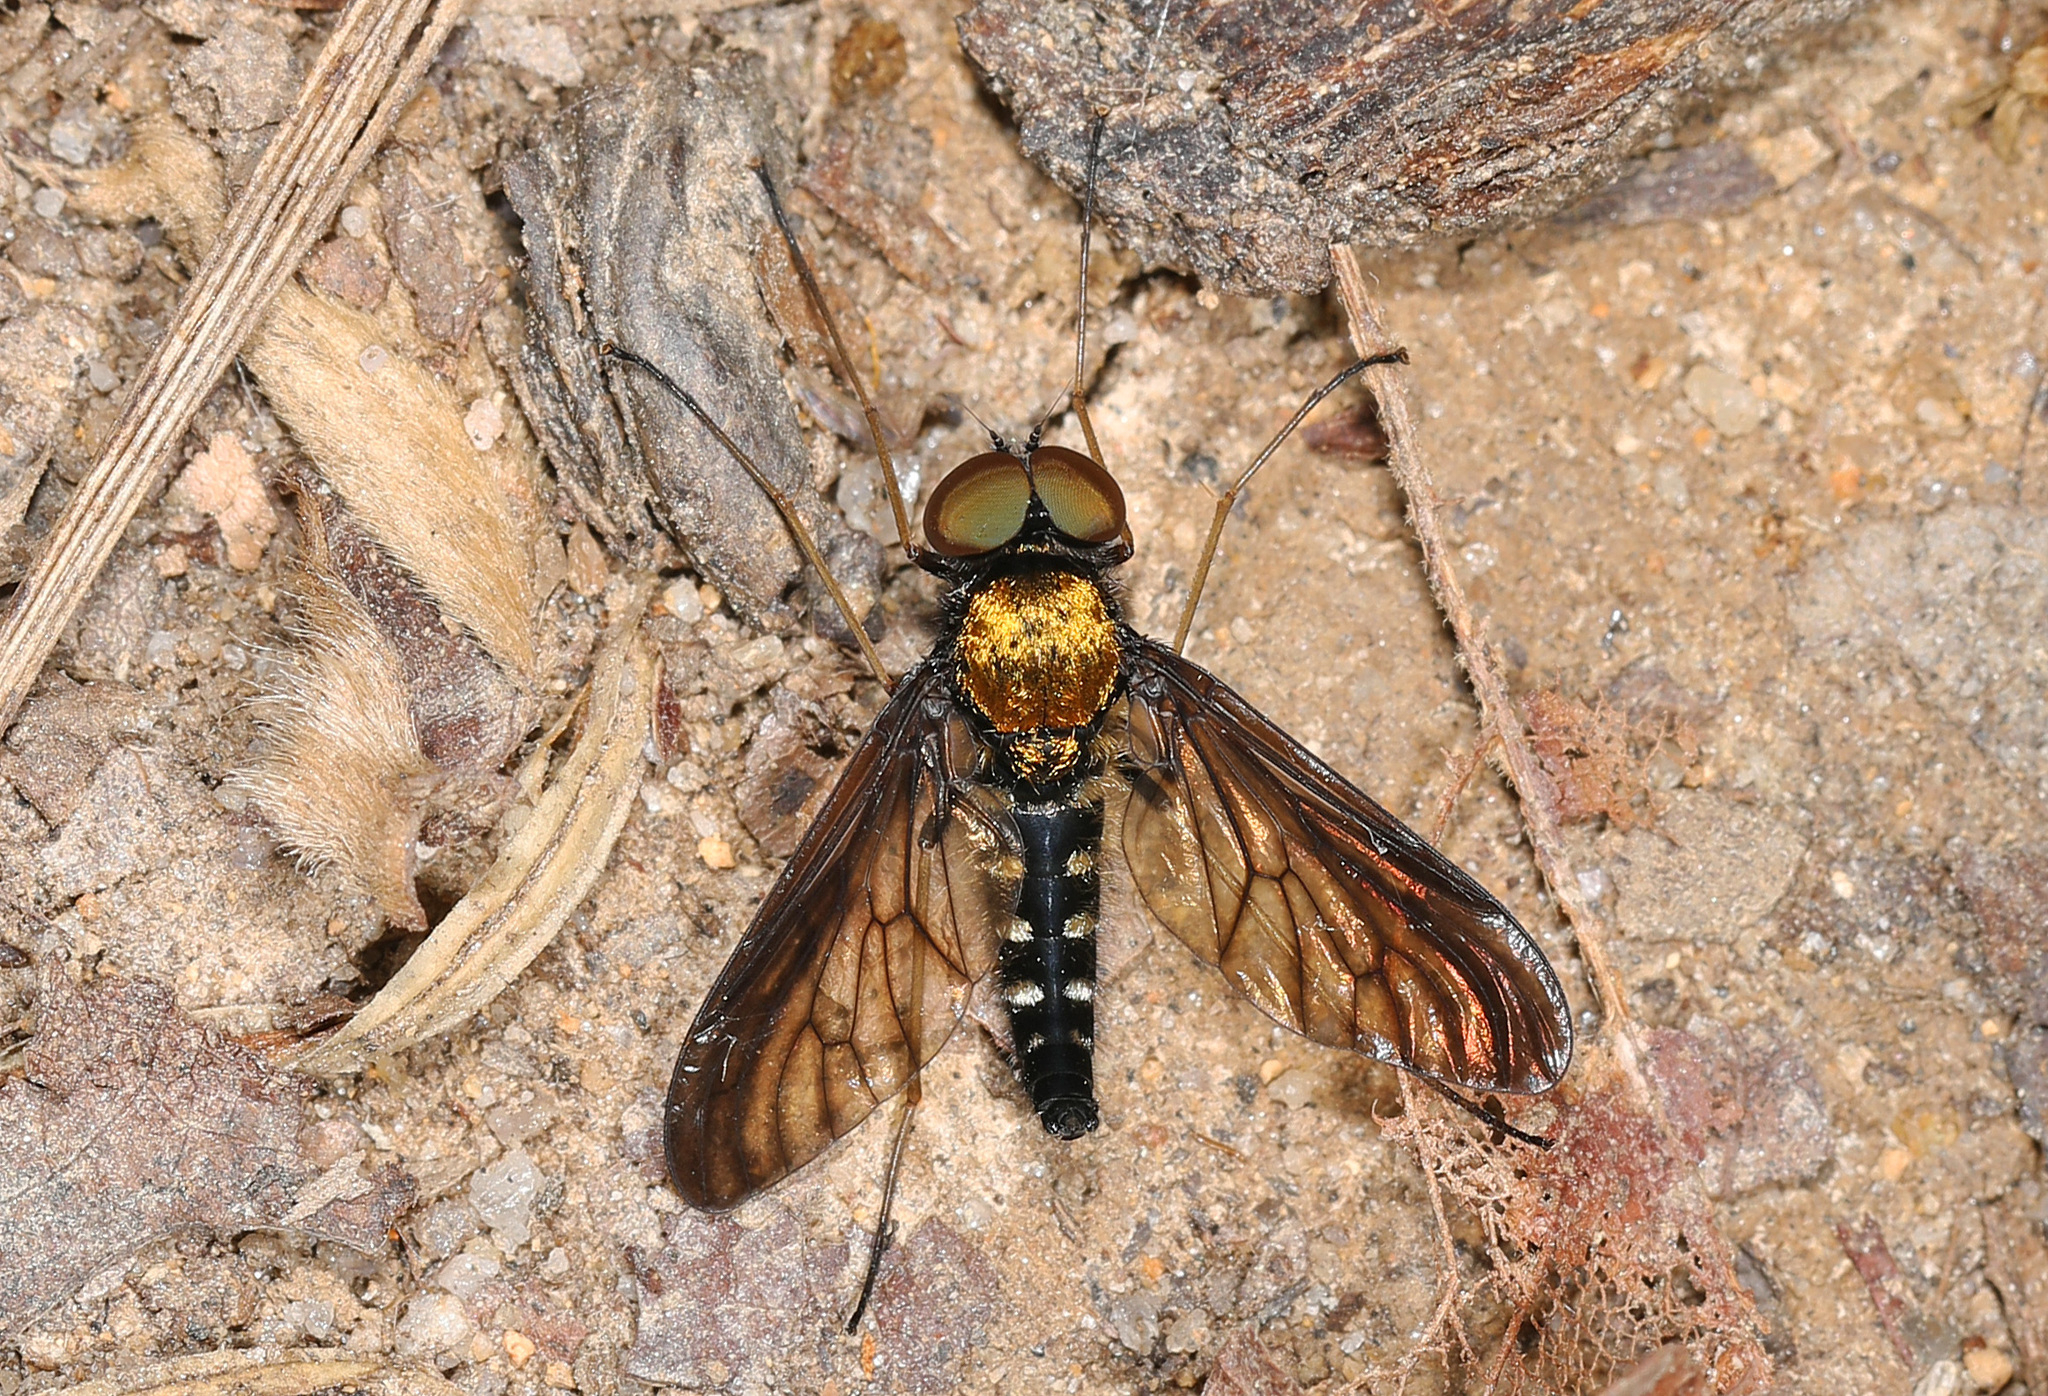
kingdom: Animalia
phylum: Arthropoda
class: Insecta
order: Diptera
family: Rhagionidae
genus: Chrysopilus
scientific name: Chrysopilus thoracicus
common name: Golden-backed snipe fly
